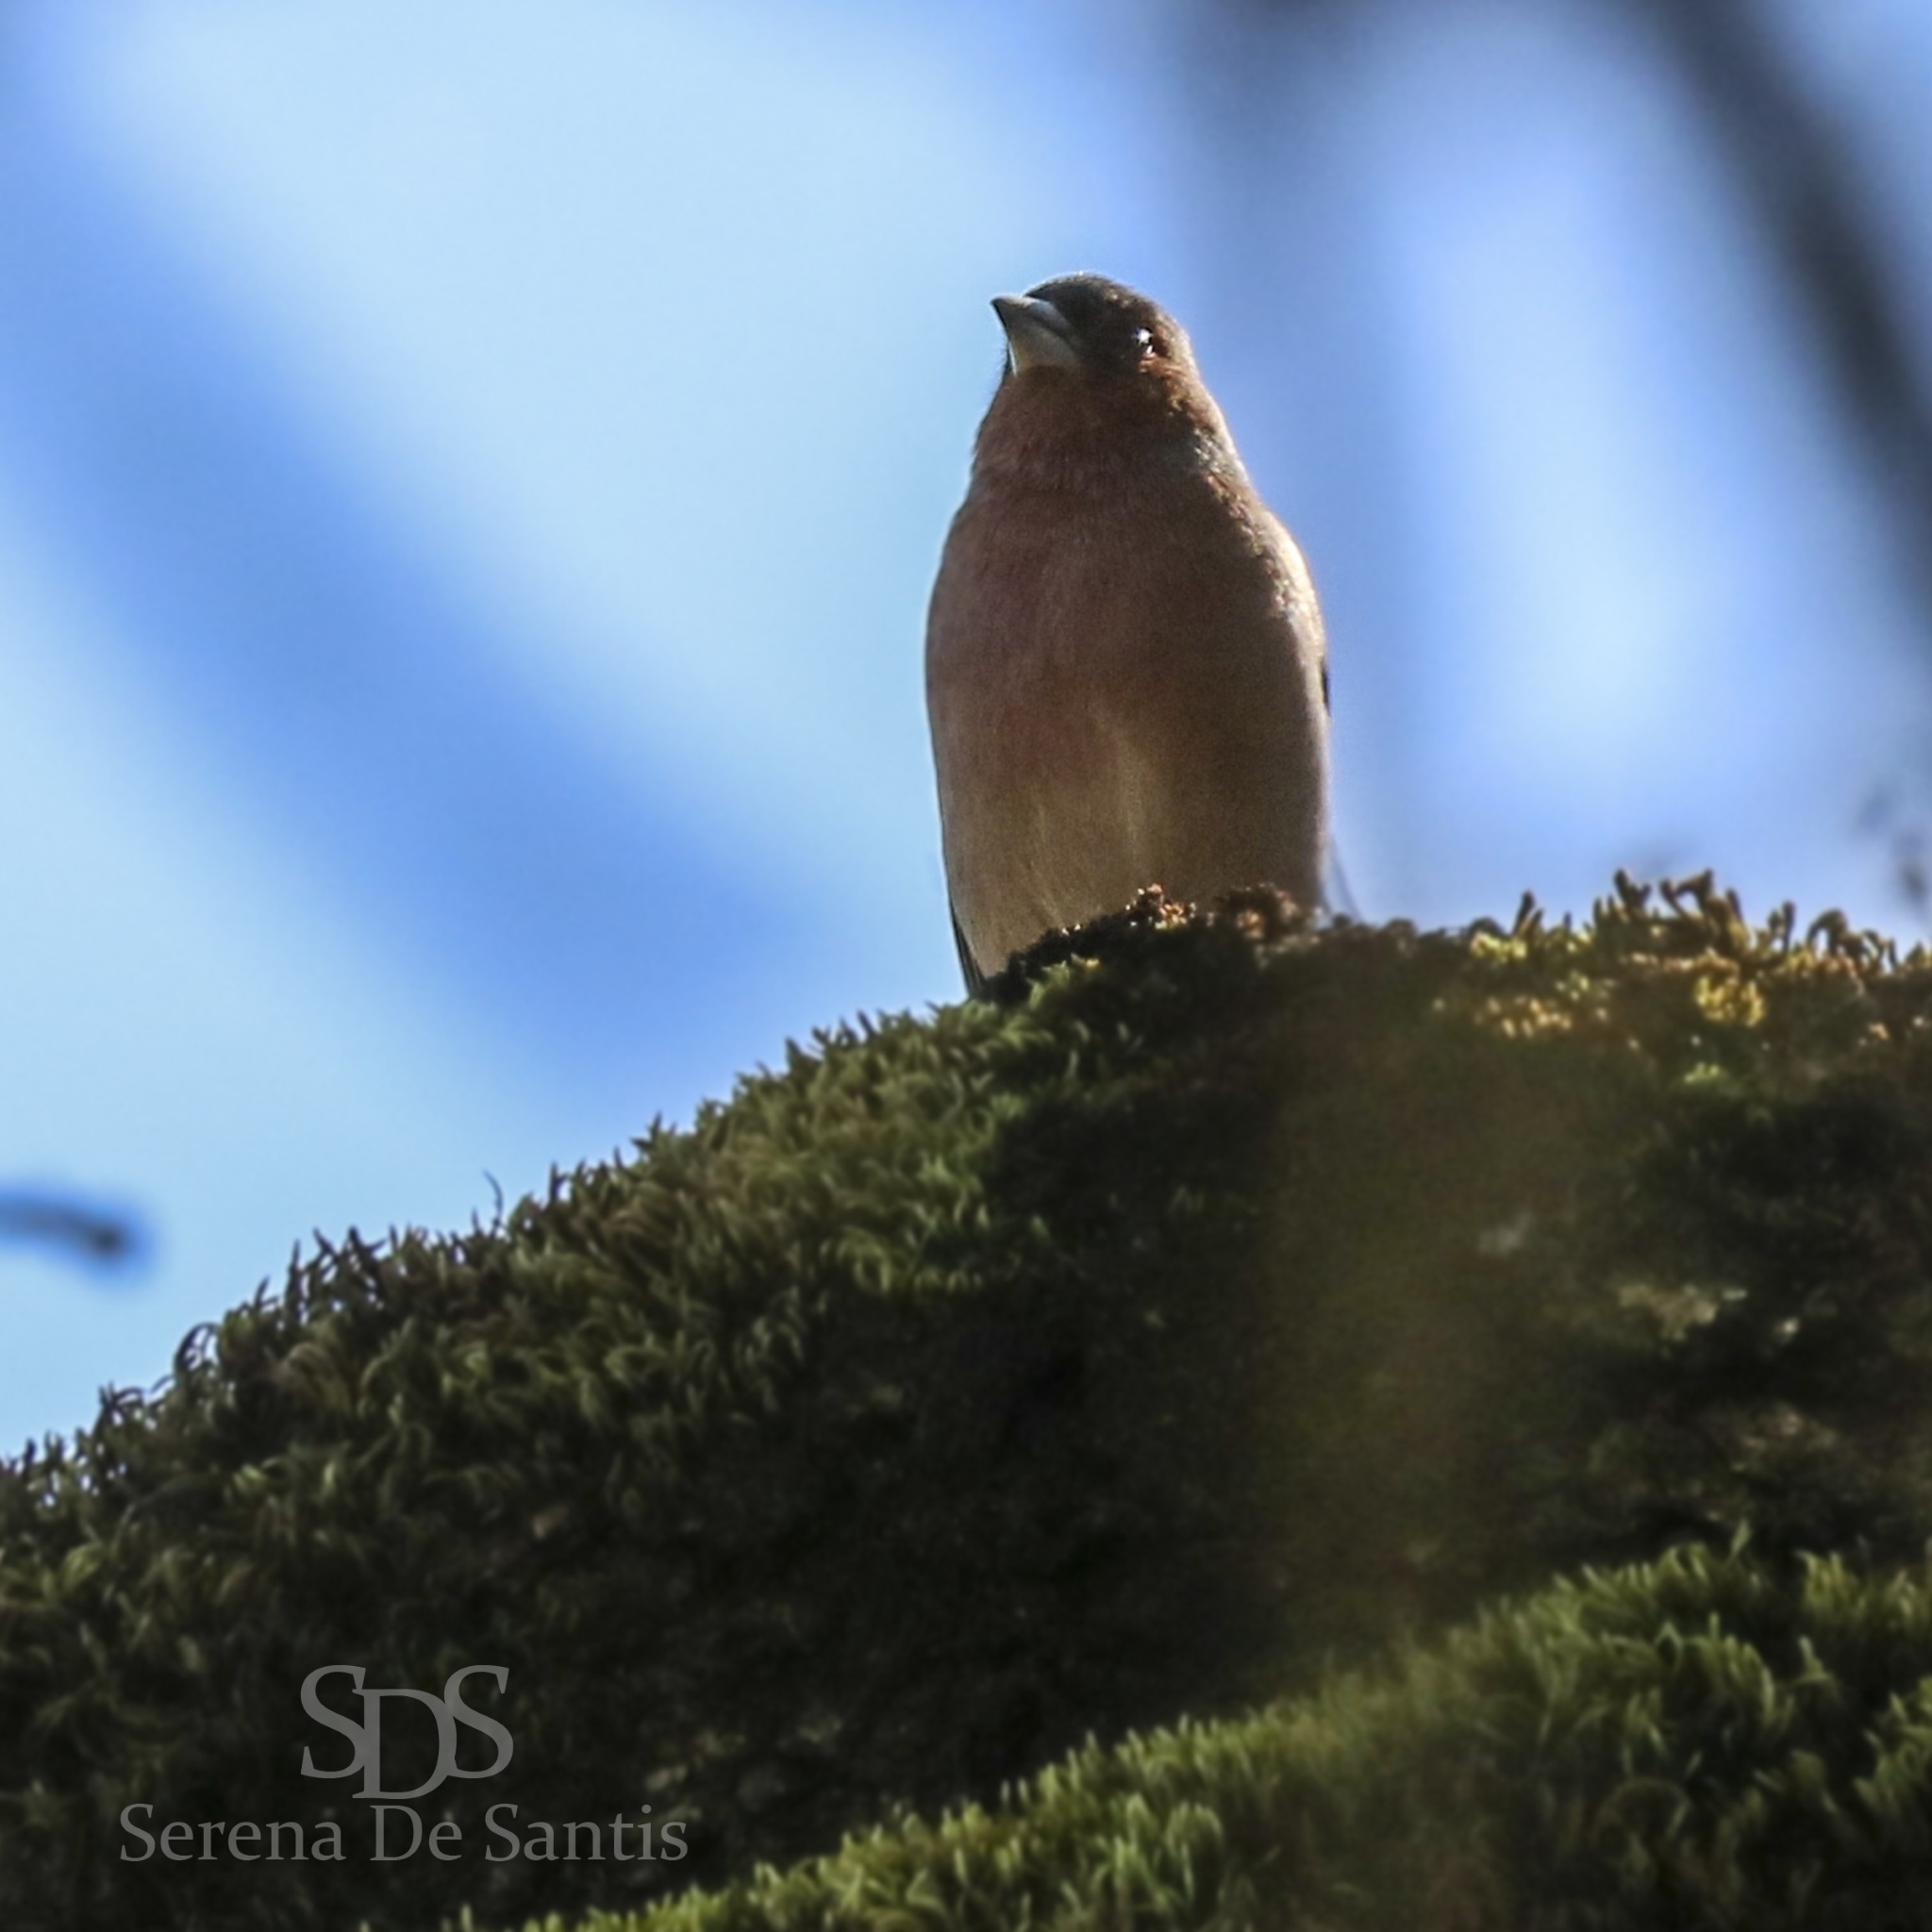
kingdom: Animalia
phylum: Chordata
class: Aves
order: Passeriformes
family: Fringillidae
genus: Fringilla
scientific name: Fringilla coelebs
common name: Common chaffinch
